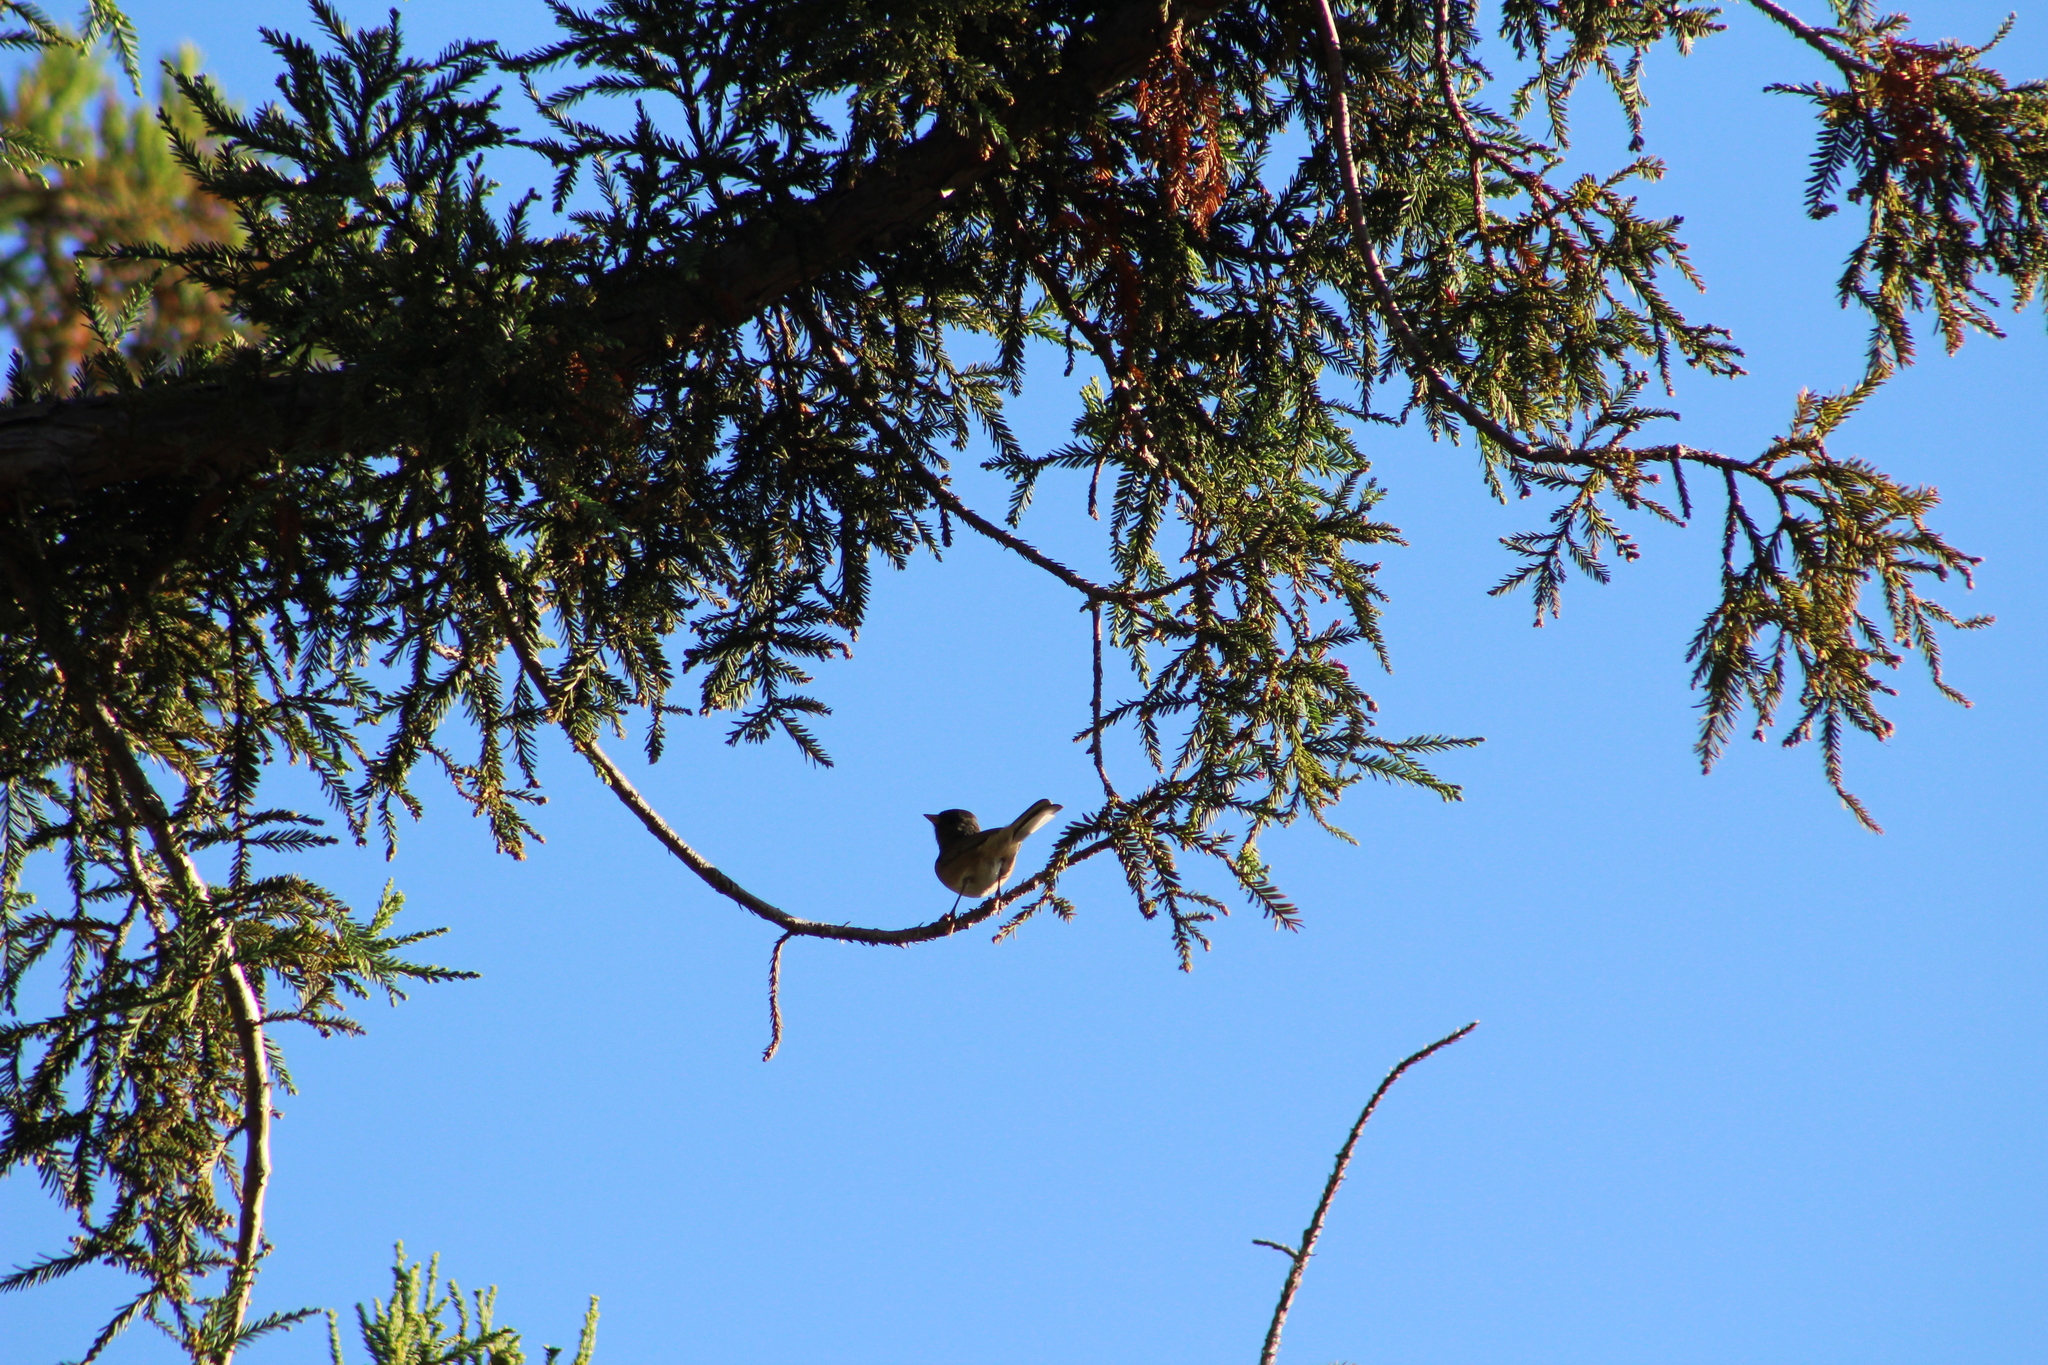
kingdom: Animalia
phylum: Chordata
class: Aves
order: Passeriformes
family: Passerellidae
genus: Junco
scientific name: Junco hyemalis
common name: Dark-eyed junco
